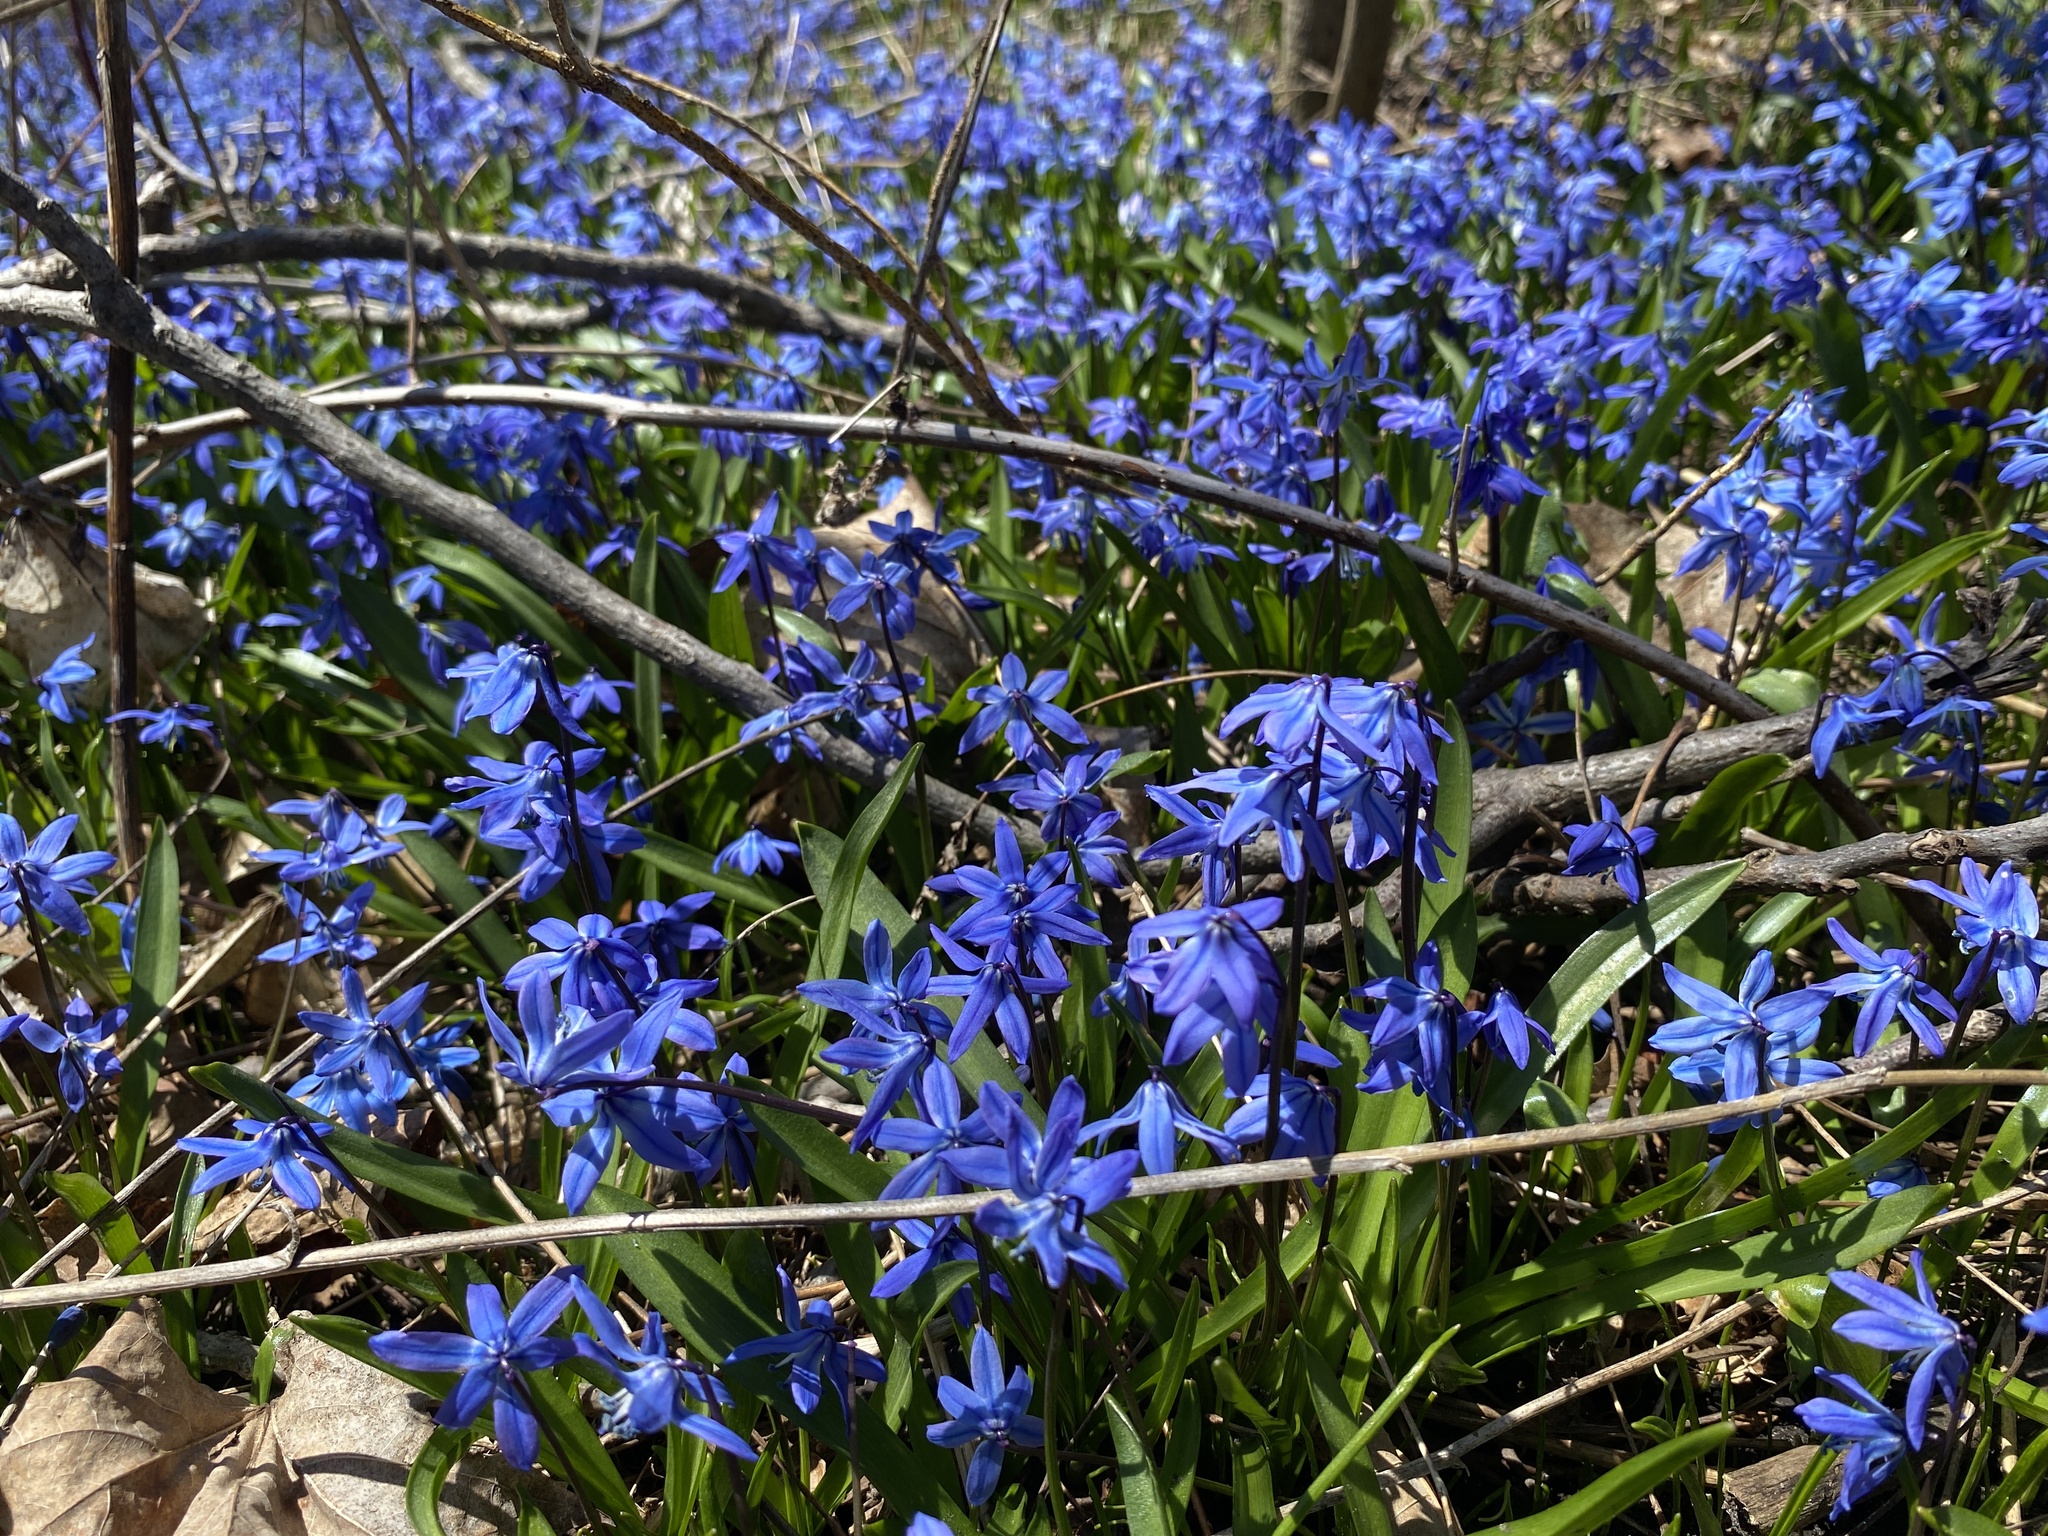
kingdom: Plantae
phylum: Tracheophyta
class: Liliopsida
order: Asparagales
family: Asparagaceae
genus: Scilla
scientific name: Scilla siberica
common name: Siberian squill
